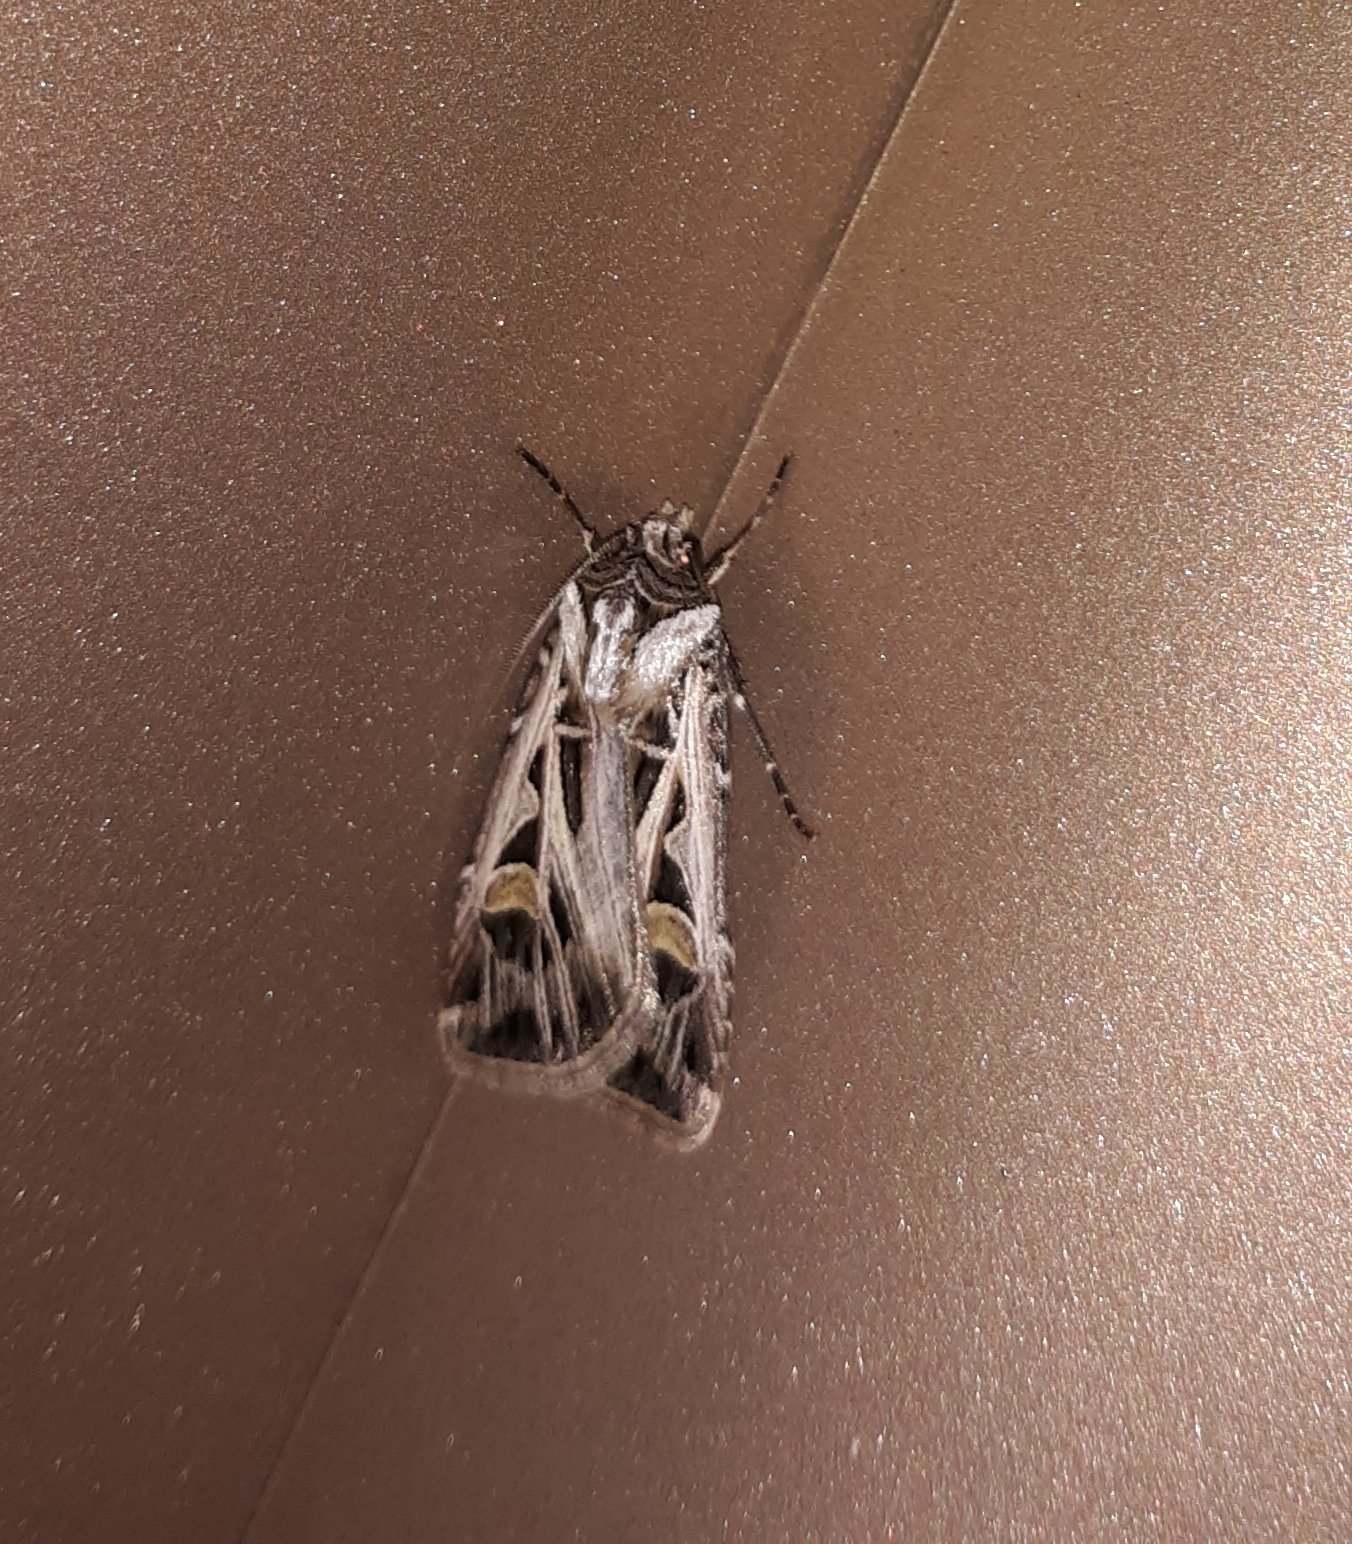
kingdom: Animalia
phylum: Arthropoda
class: Insecta
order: Lepidoptera
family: Noctuidae
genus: Feltia
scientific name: Feltia jaculifera
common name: Dingy cutworm moth
